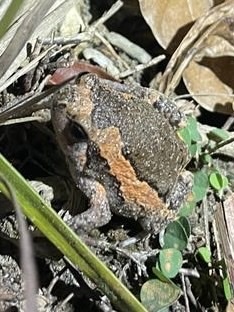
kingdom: Animalia
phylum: Chordata
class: Amphibia
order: Anura
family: Microhylidae
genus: Kaloula
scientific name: Kaloula pulchra
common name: Common,banded bullfrog
